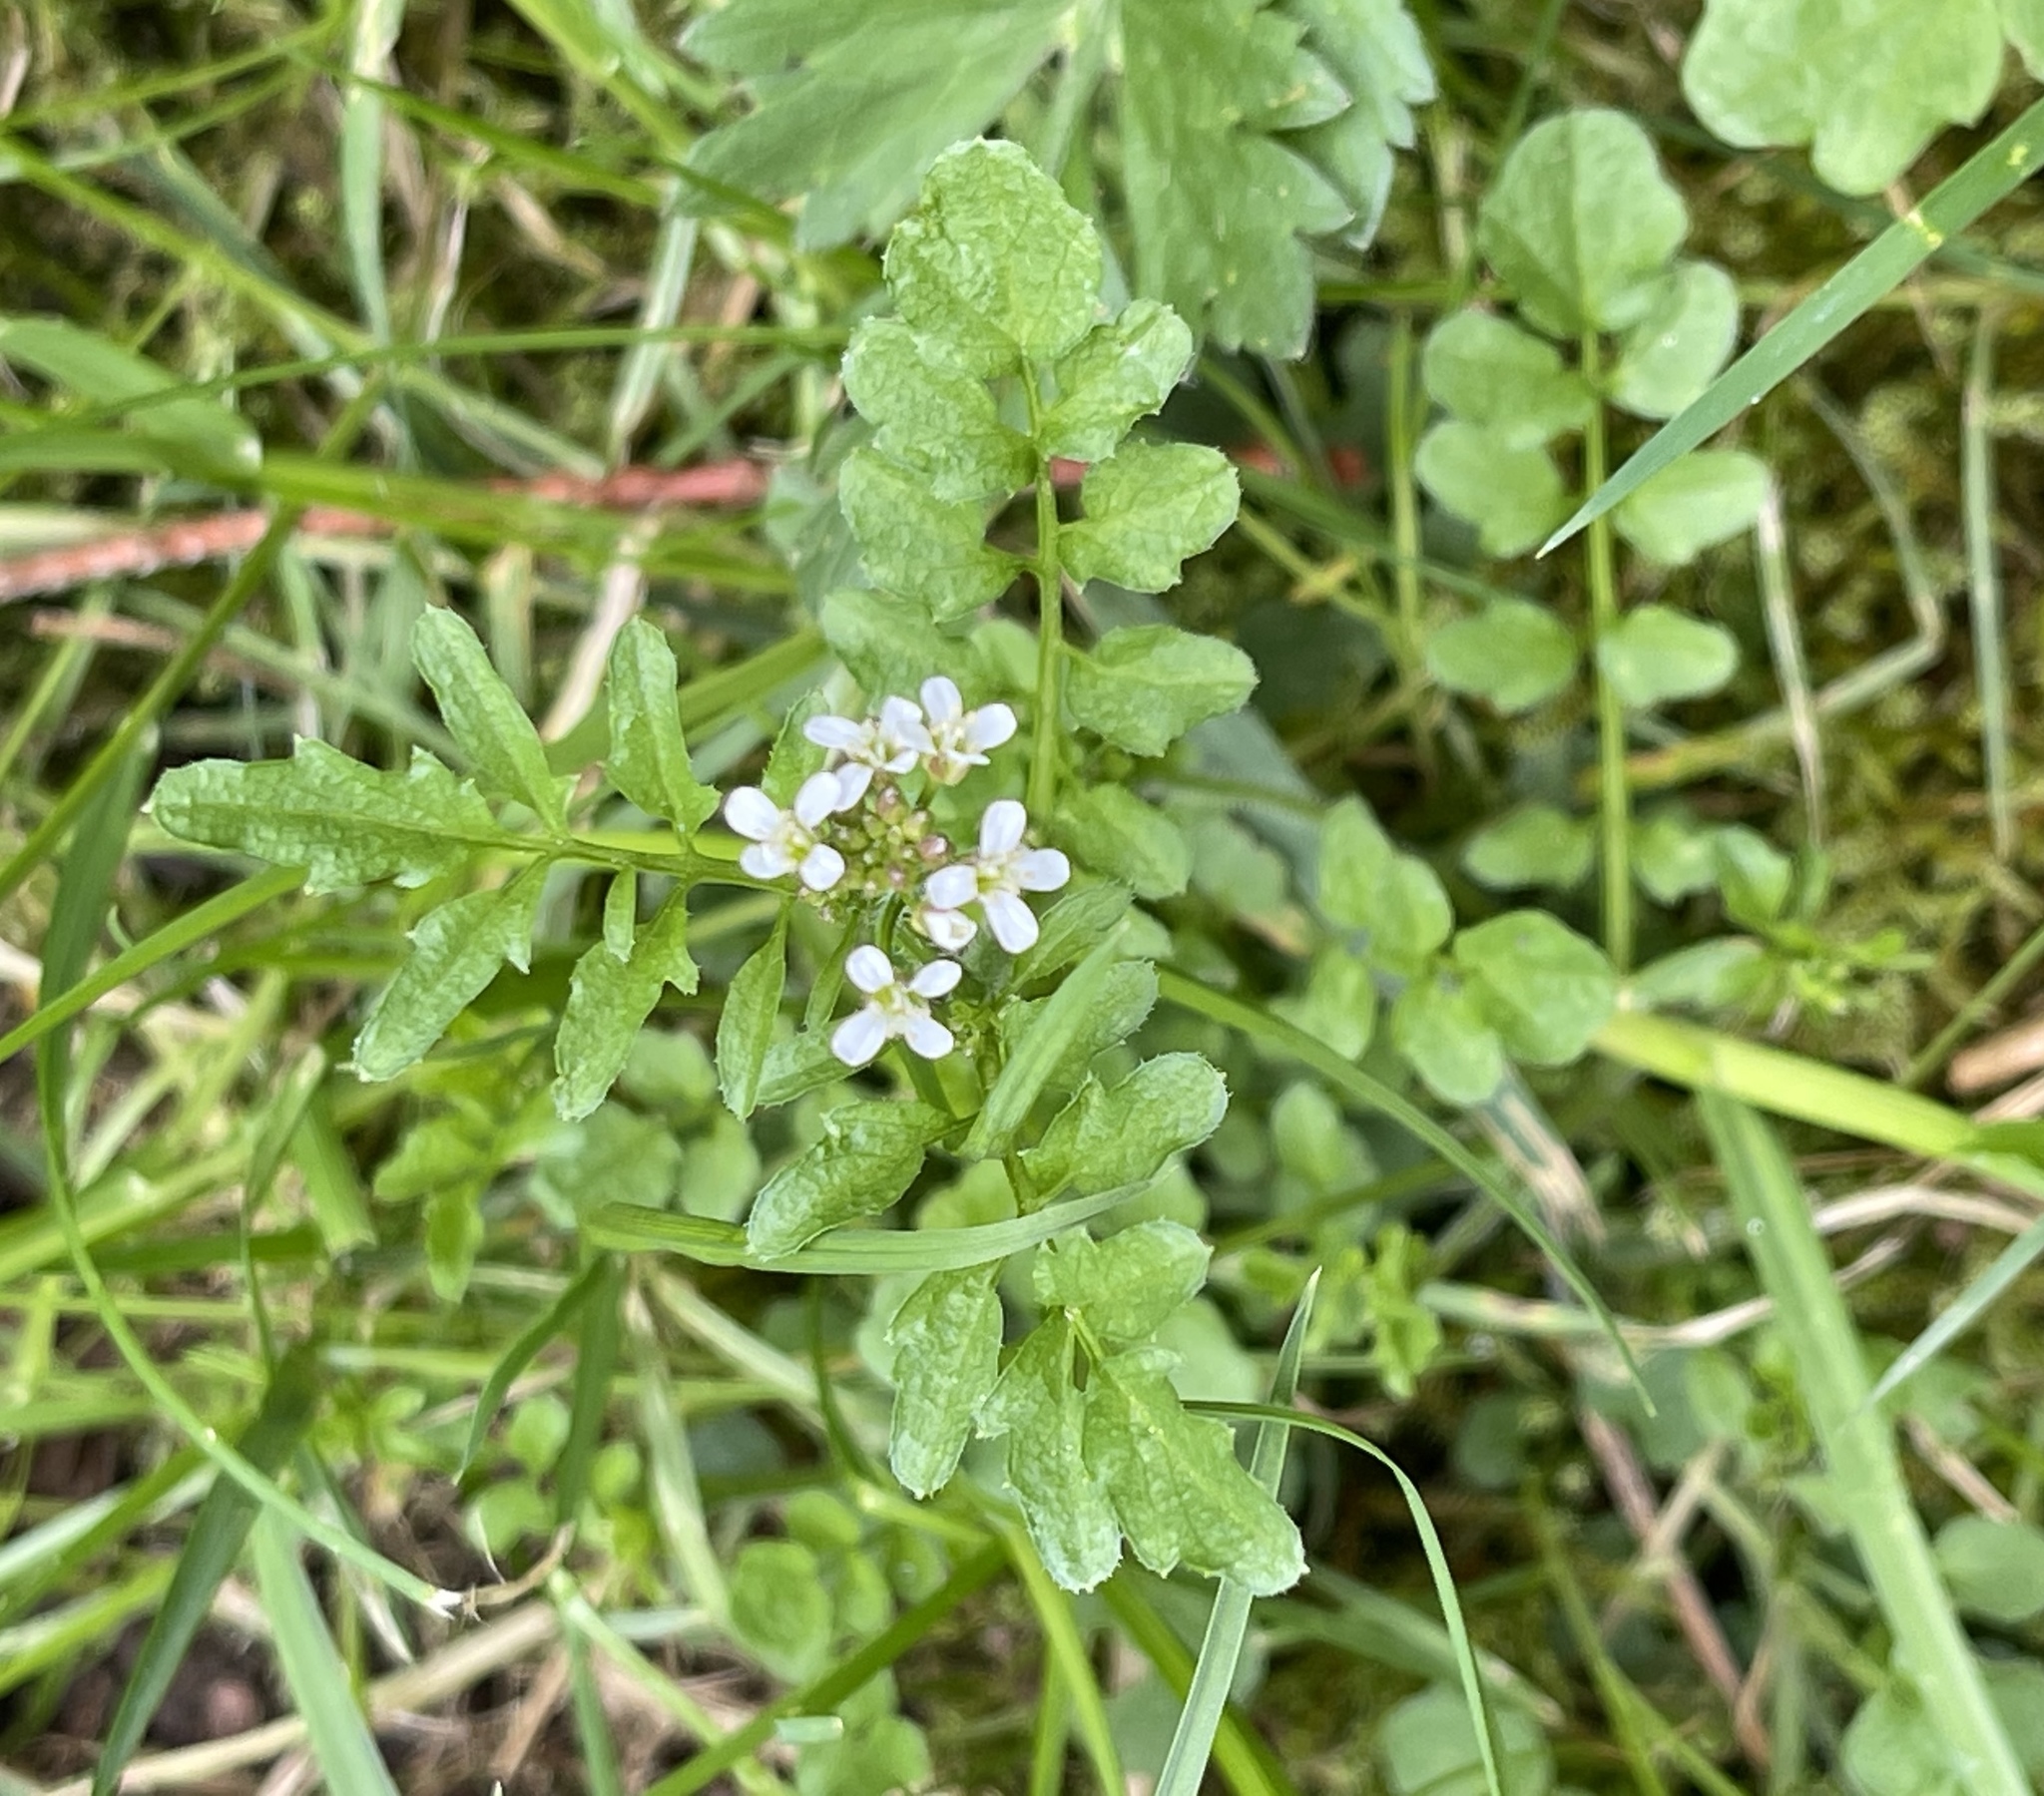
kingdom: Plantae
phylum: Tracheophyta
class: Magnoliopsida
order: Brassicales
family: Brassicaceae
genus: Cardamine
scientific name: Cardamine flexuosa
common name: Woodland bittercress
